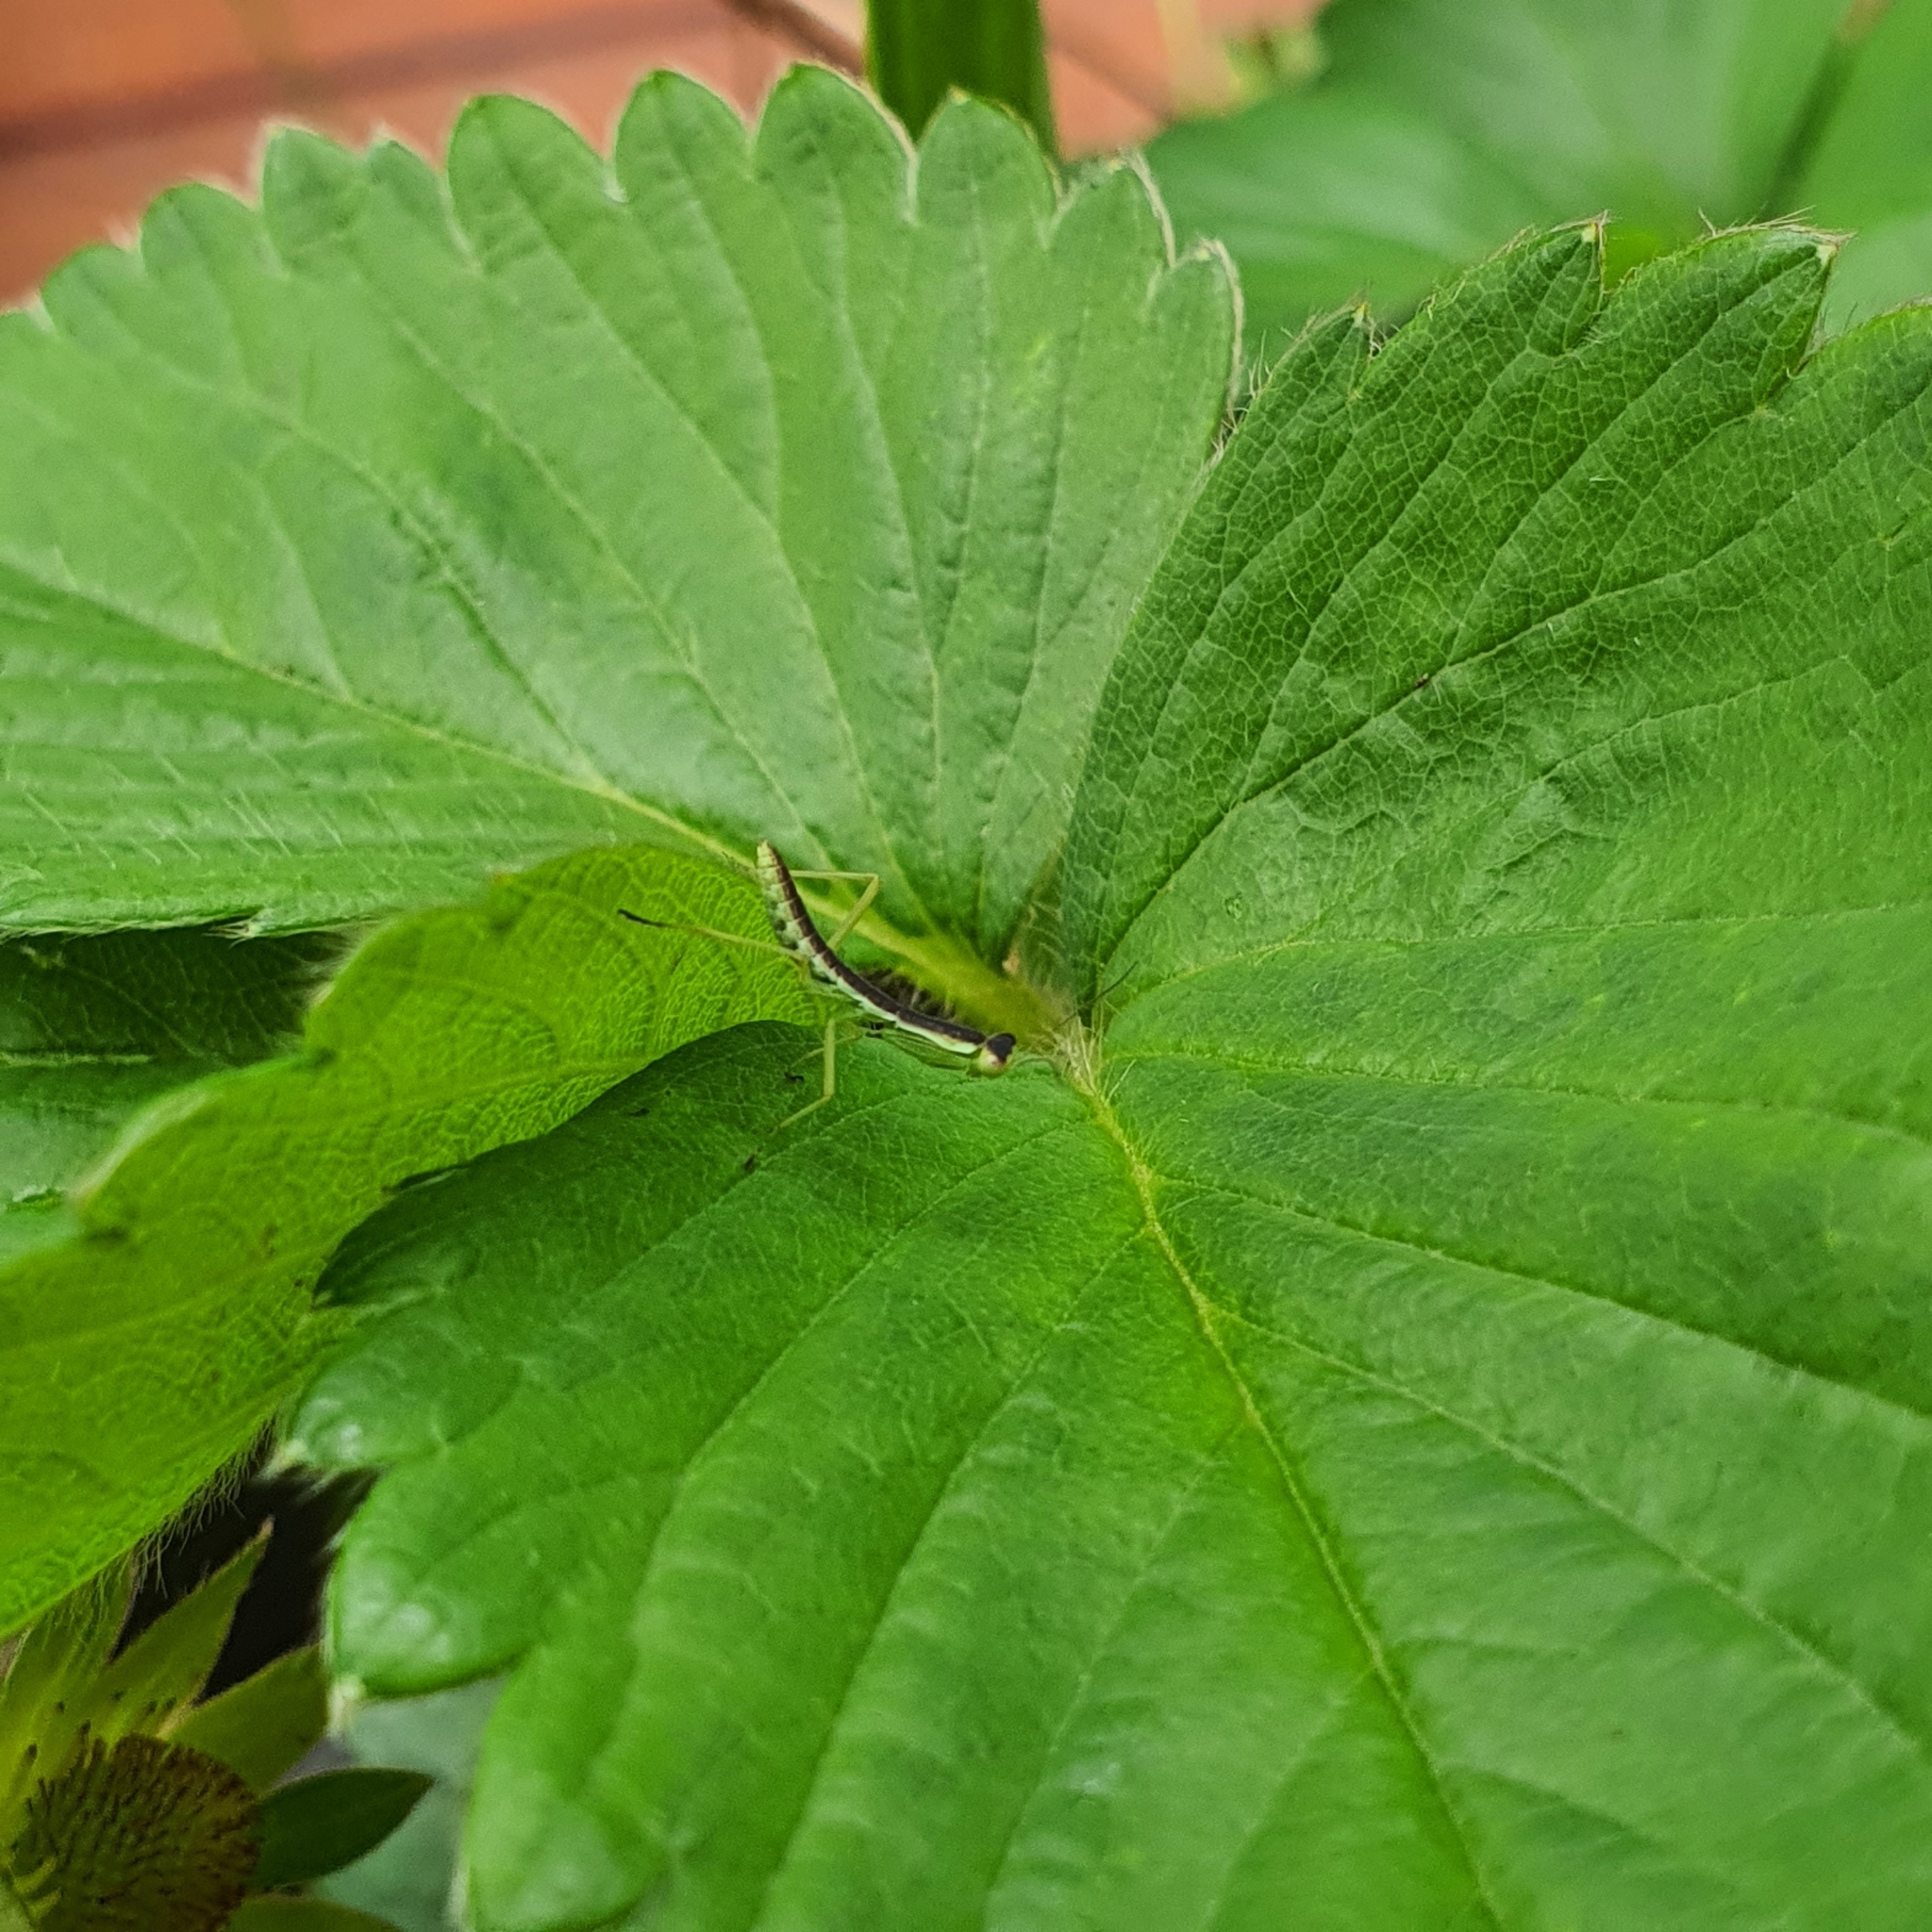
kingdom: Animalia
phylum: Arthropoda
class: Insecta
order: Mantodea
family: Mantidae
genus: Orthodera
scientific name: Orthodera ministralis
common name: Mantis
